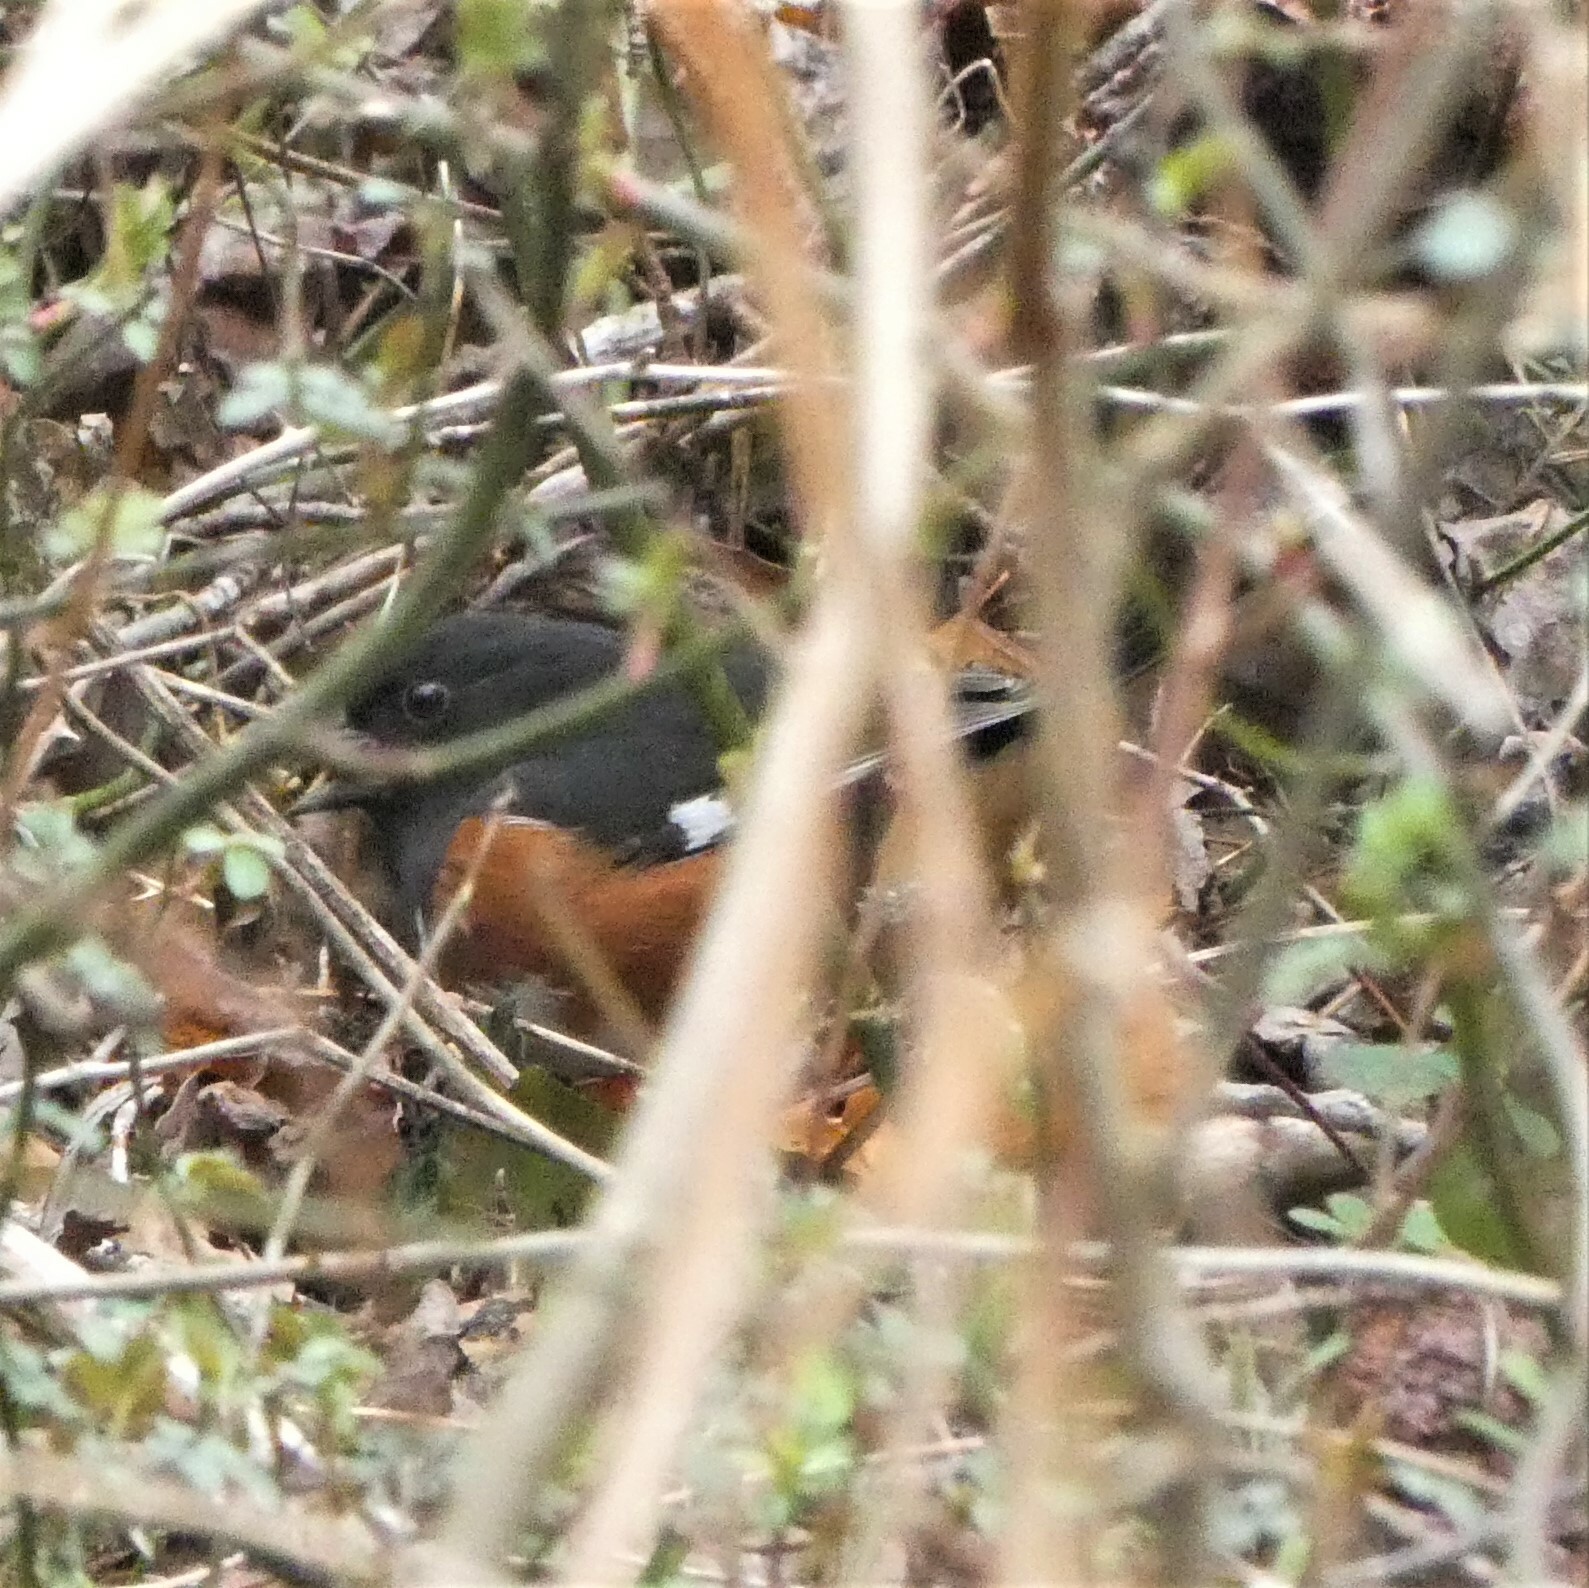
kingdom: Animalia
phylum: Chordata
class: Aves
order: Passeriformes
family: Passerellidae
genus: Pipilo
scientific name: Pipilo erythrophthalmus
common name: Eastern towhee
